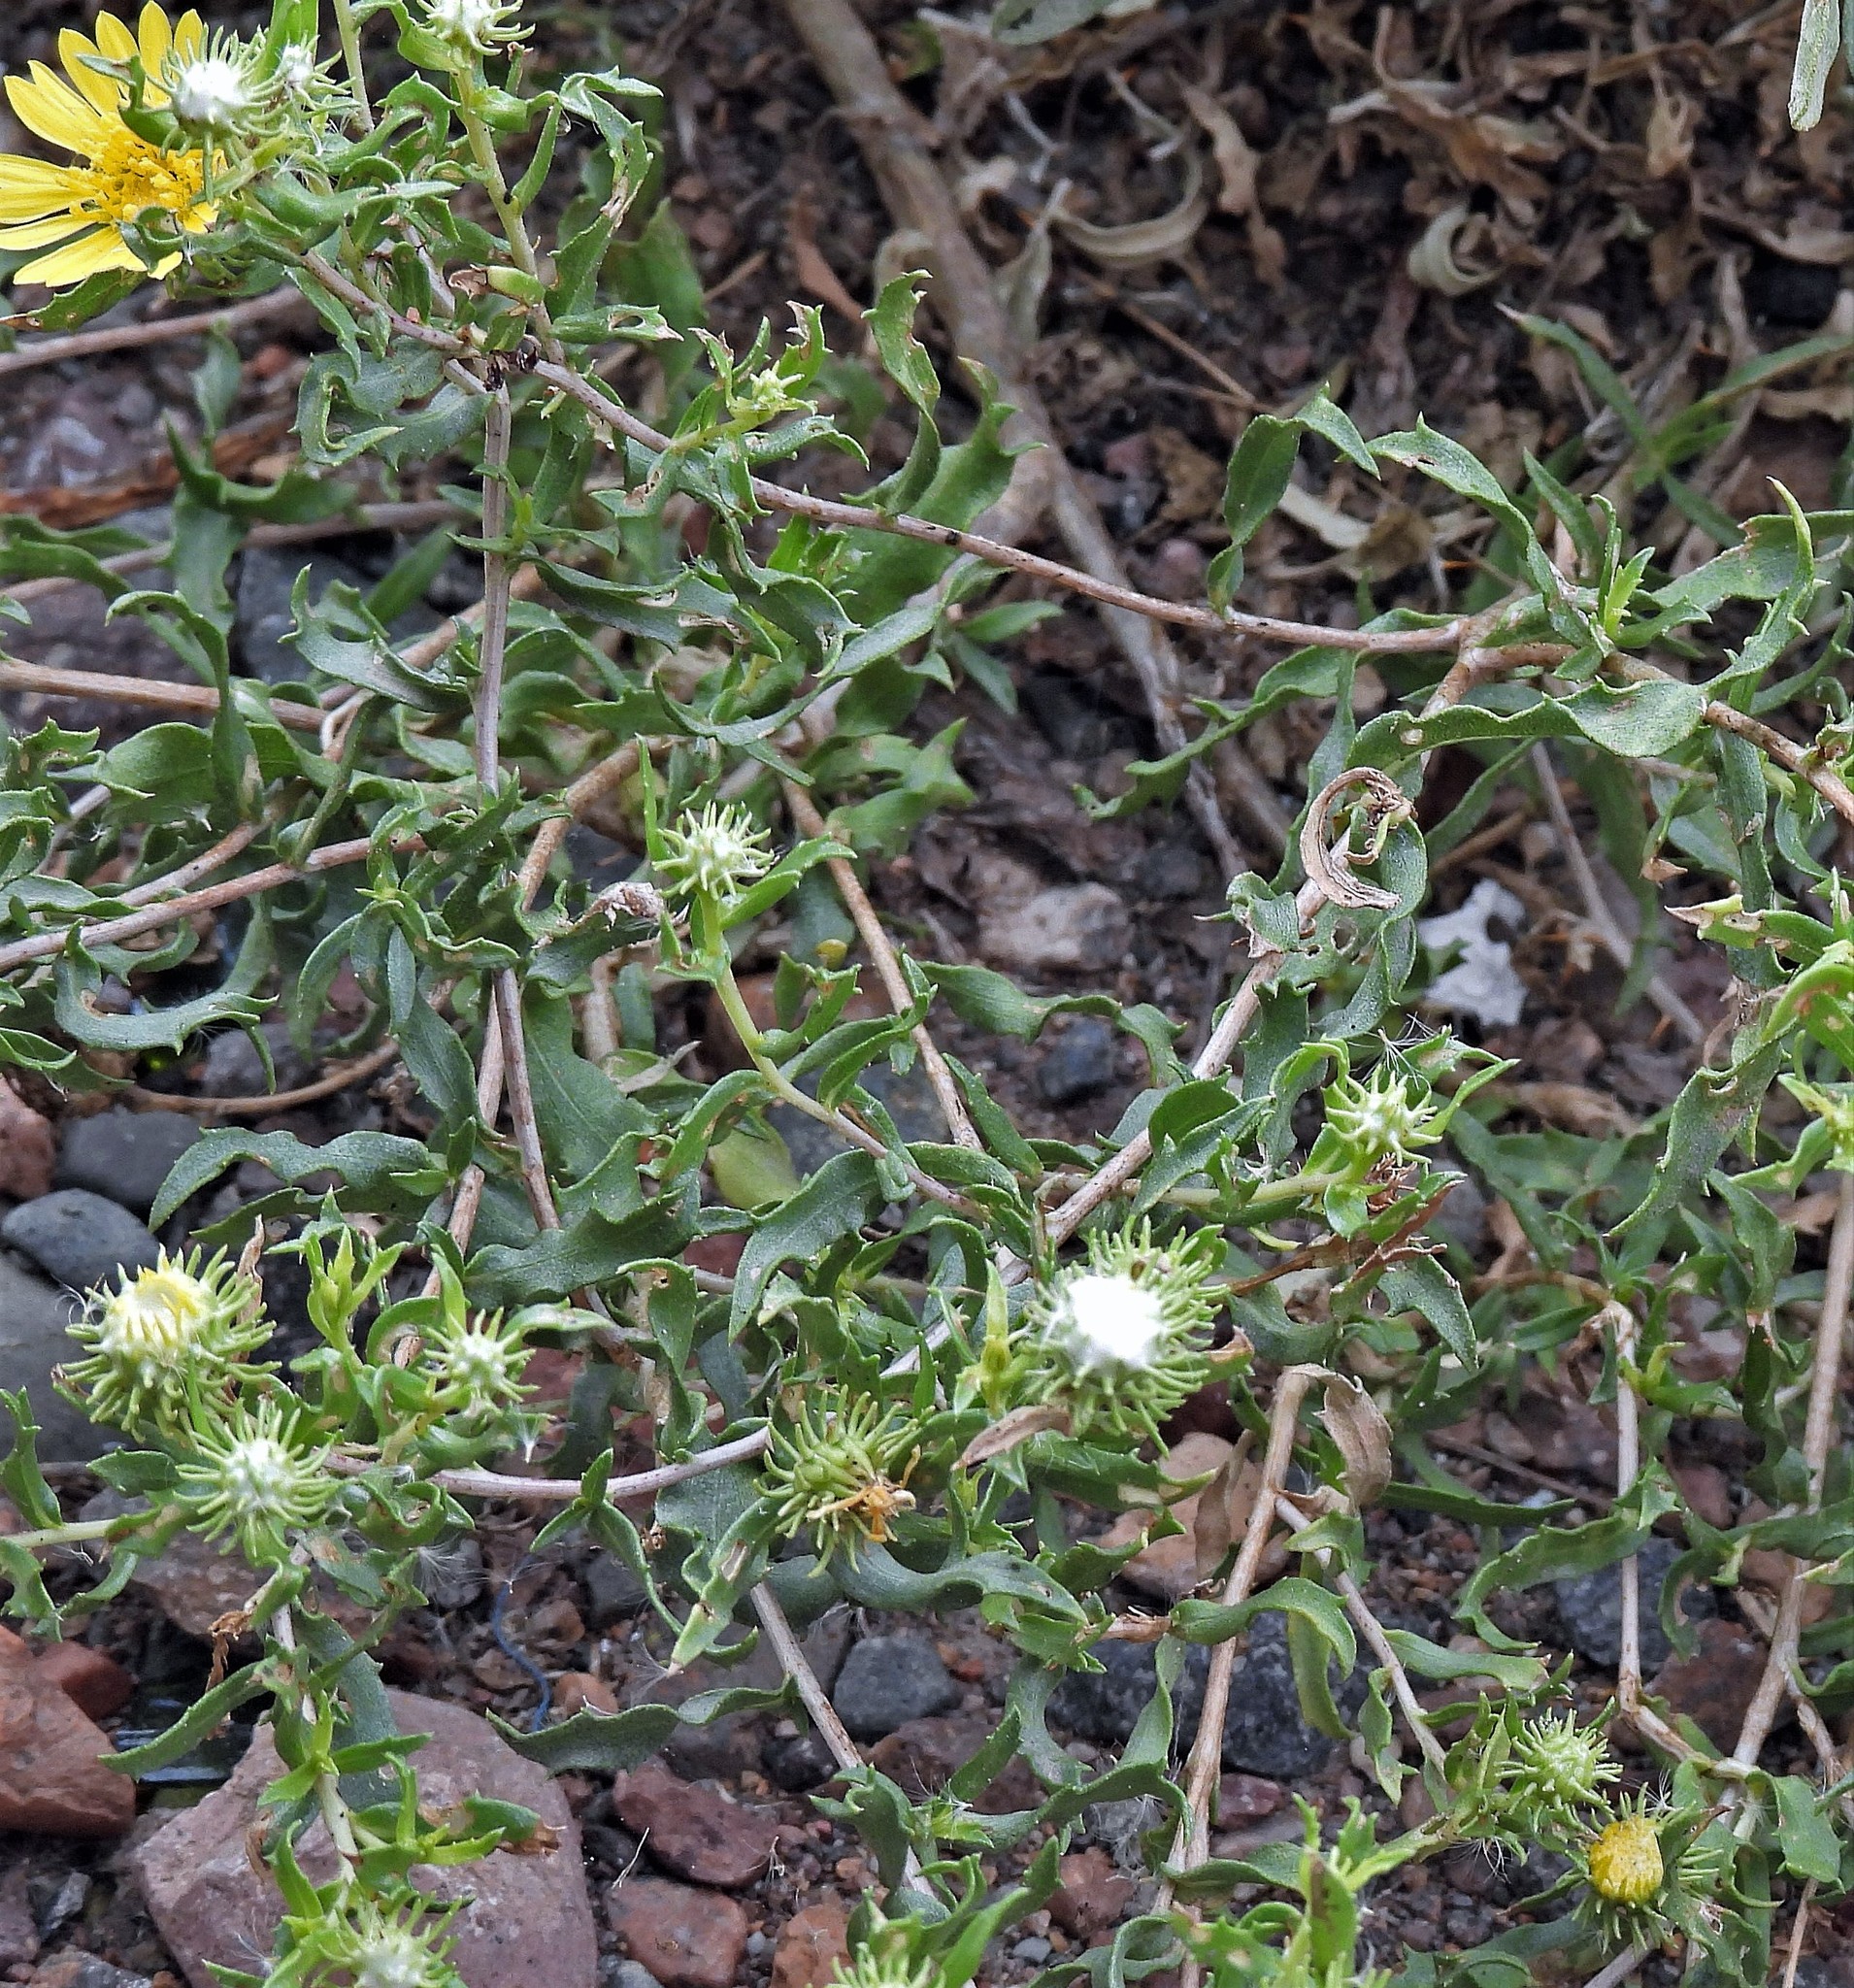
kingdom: Plantae
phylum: Tracheophyta
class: Magnoliopsida
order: Asterales
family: Asteraceae
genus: Grindelia
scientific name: Grindelia pulchella
